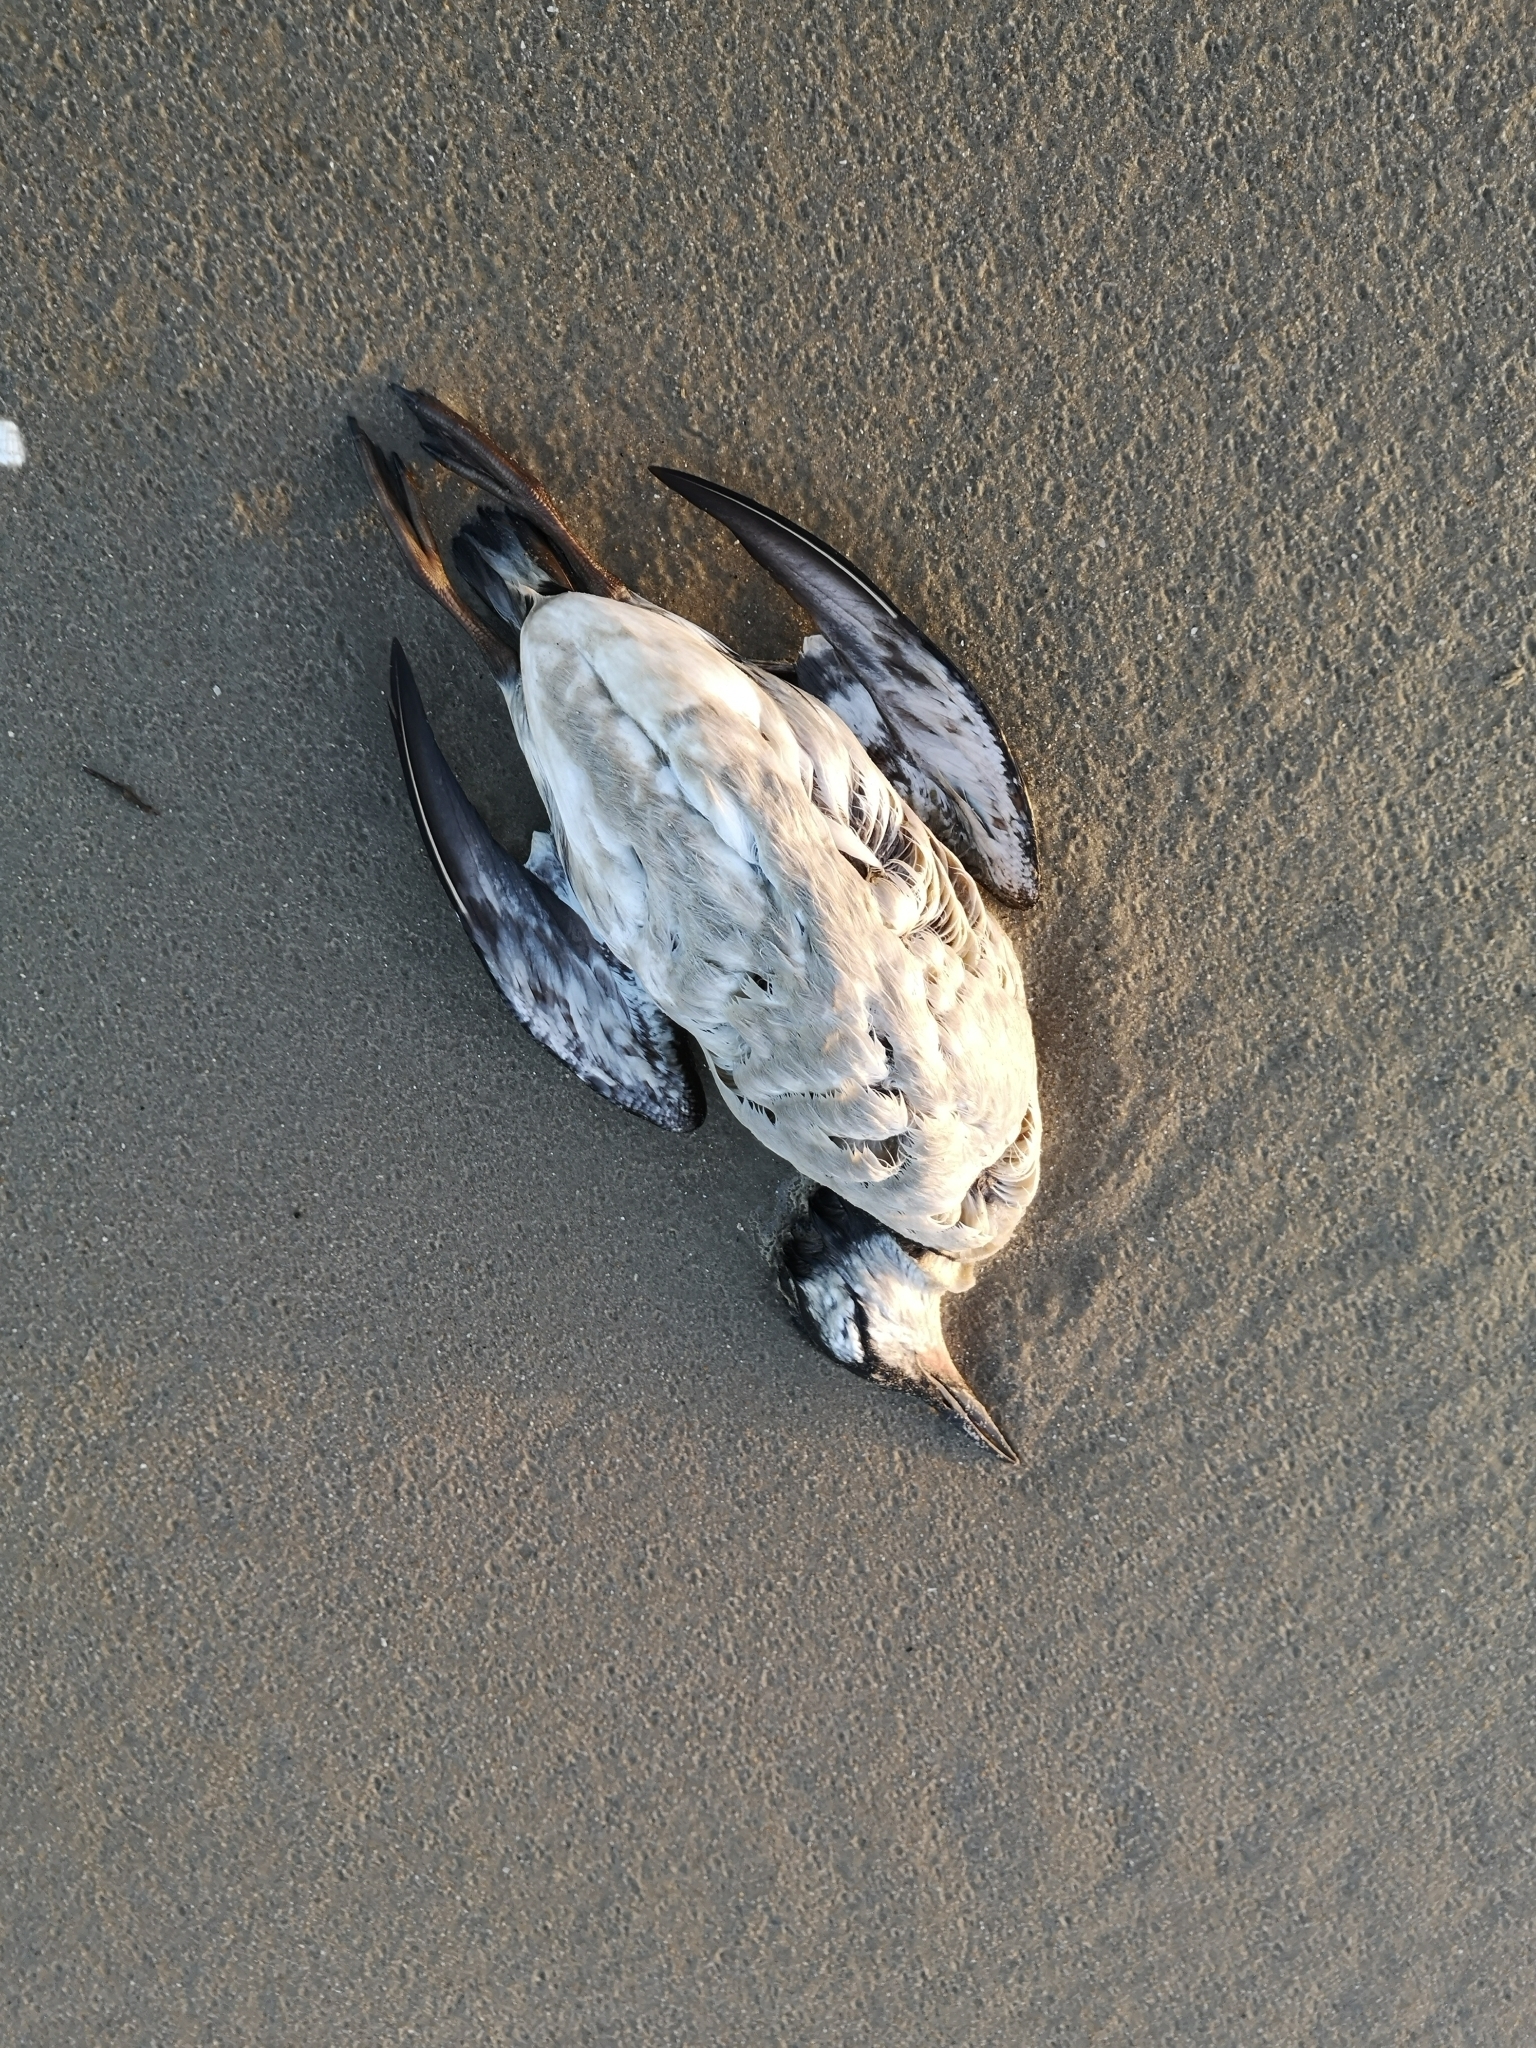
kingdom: Animalia
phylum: Chordata
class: Aves
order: Charadriiformes
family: Alcidae
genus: Uria
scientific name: Uria aalge
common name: Common murre
